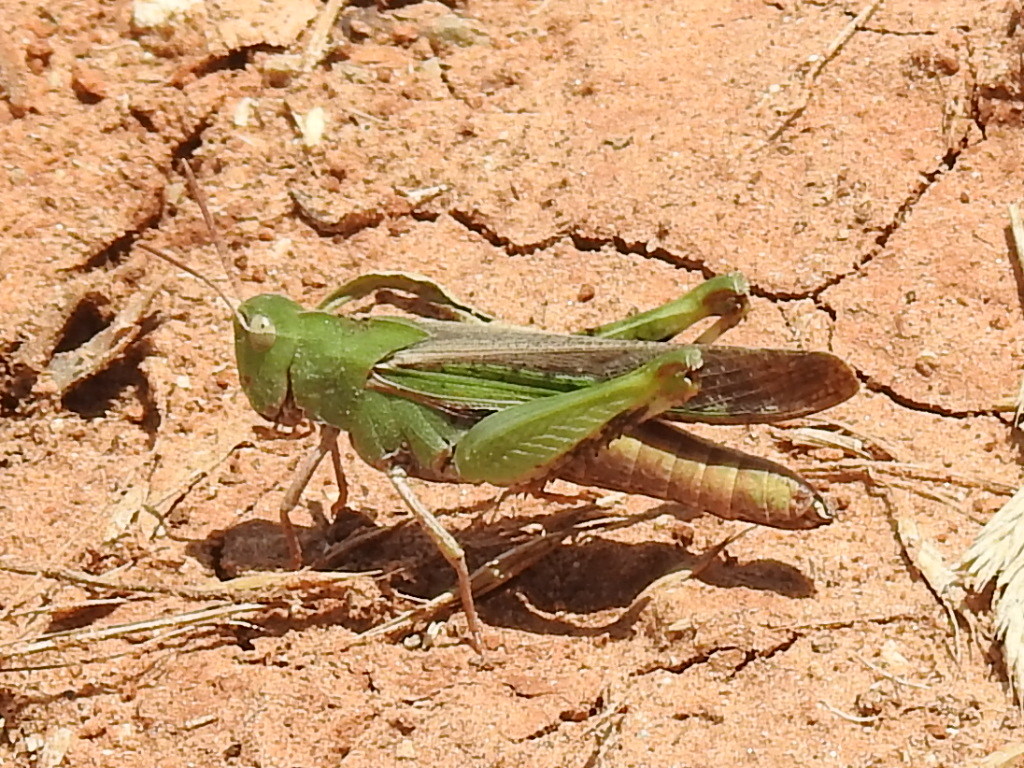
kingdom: Animalia
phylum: Arthropoda
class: Insecta
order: Orthoptera
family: Acrididae
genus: Chortophaga
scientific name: Chortophaga viridifasciata
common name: Green-striped grasshopper
